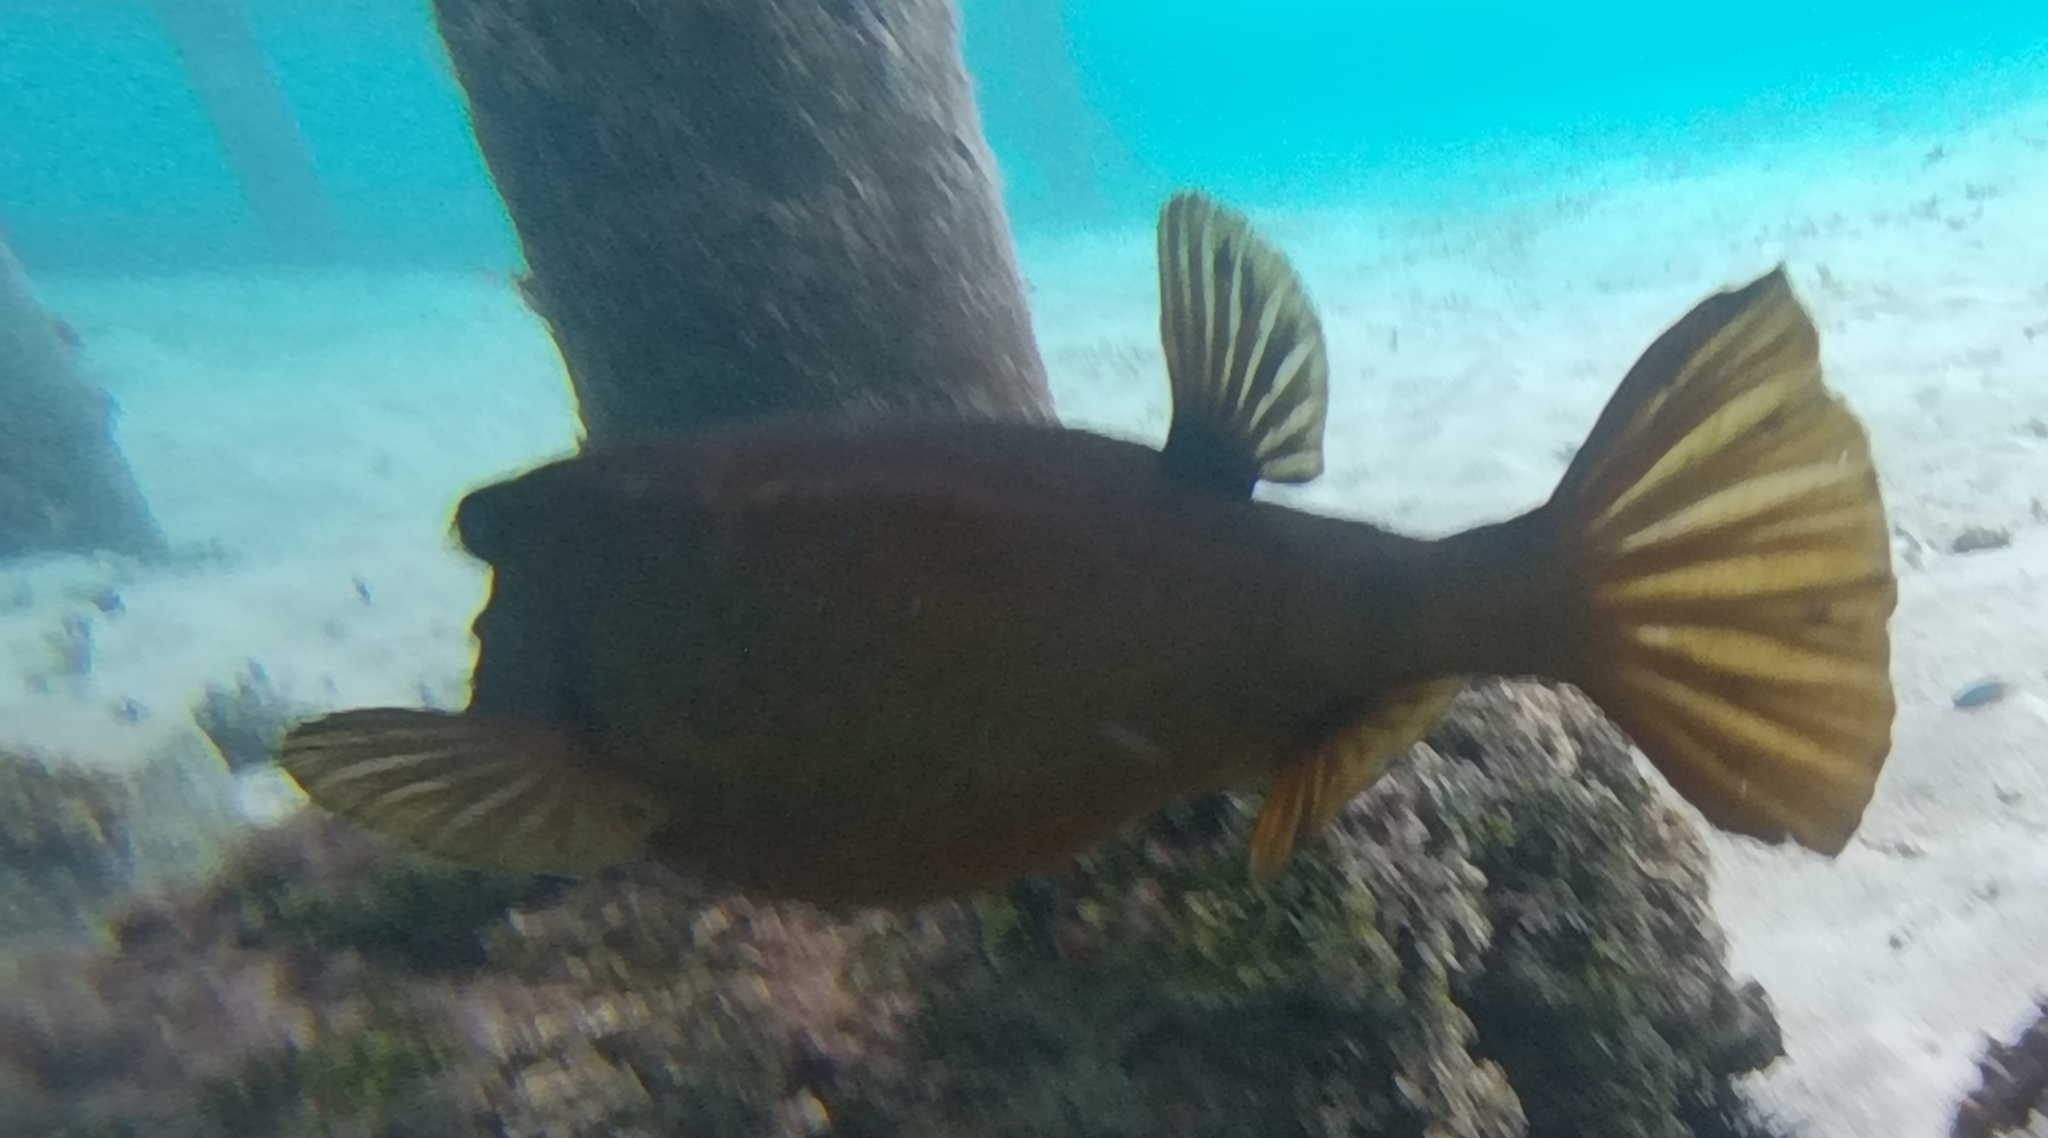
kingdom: Animalia
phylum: Chordata
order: Tetraodontiformes
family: Ostraciidae
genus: Ostracion
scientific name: Ostracion cubicus
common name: Cube trunkfish
